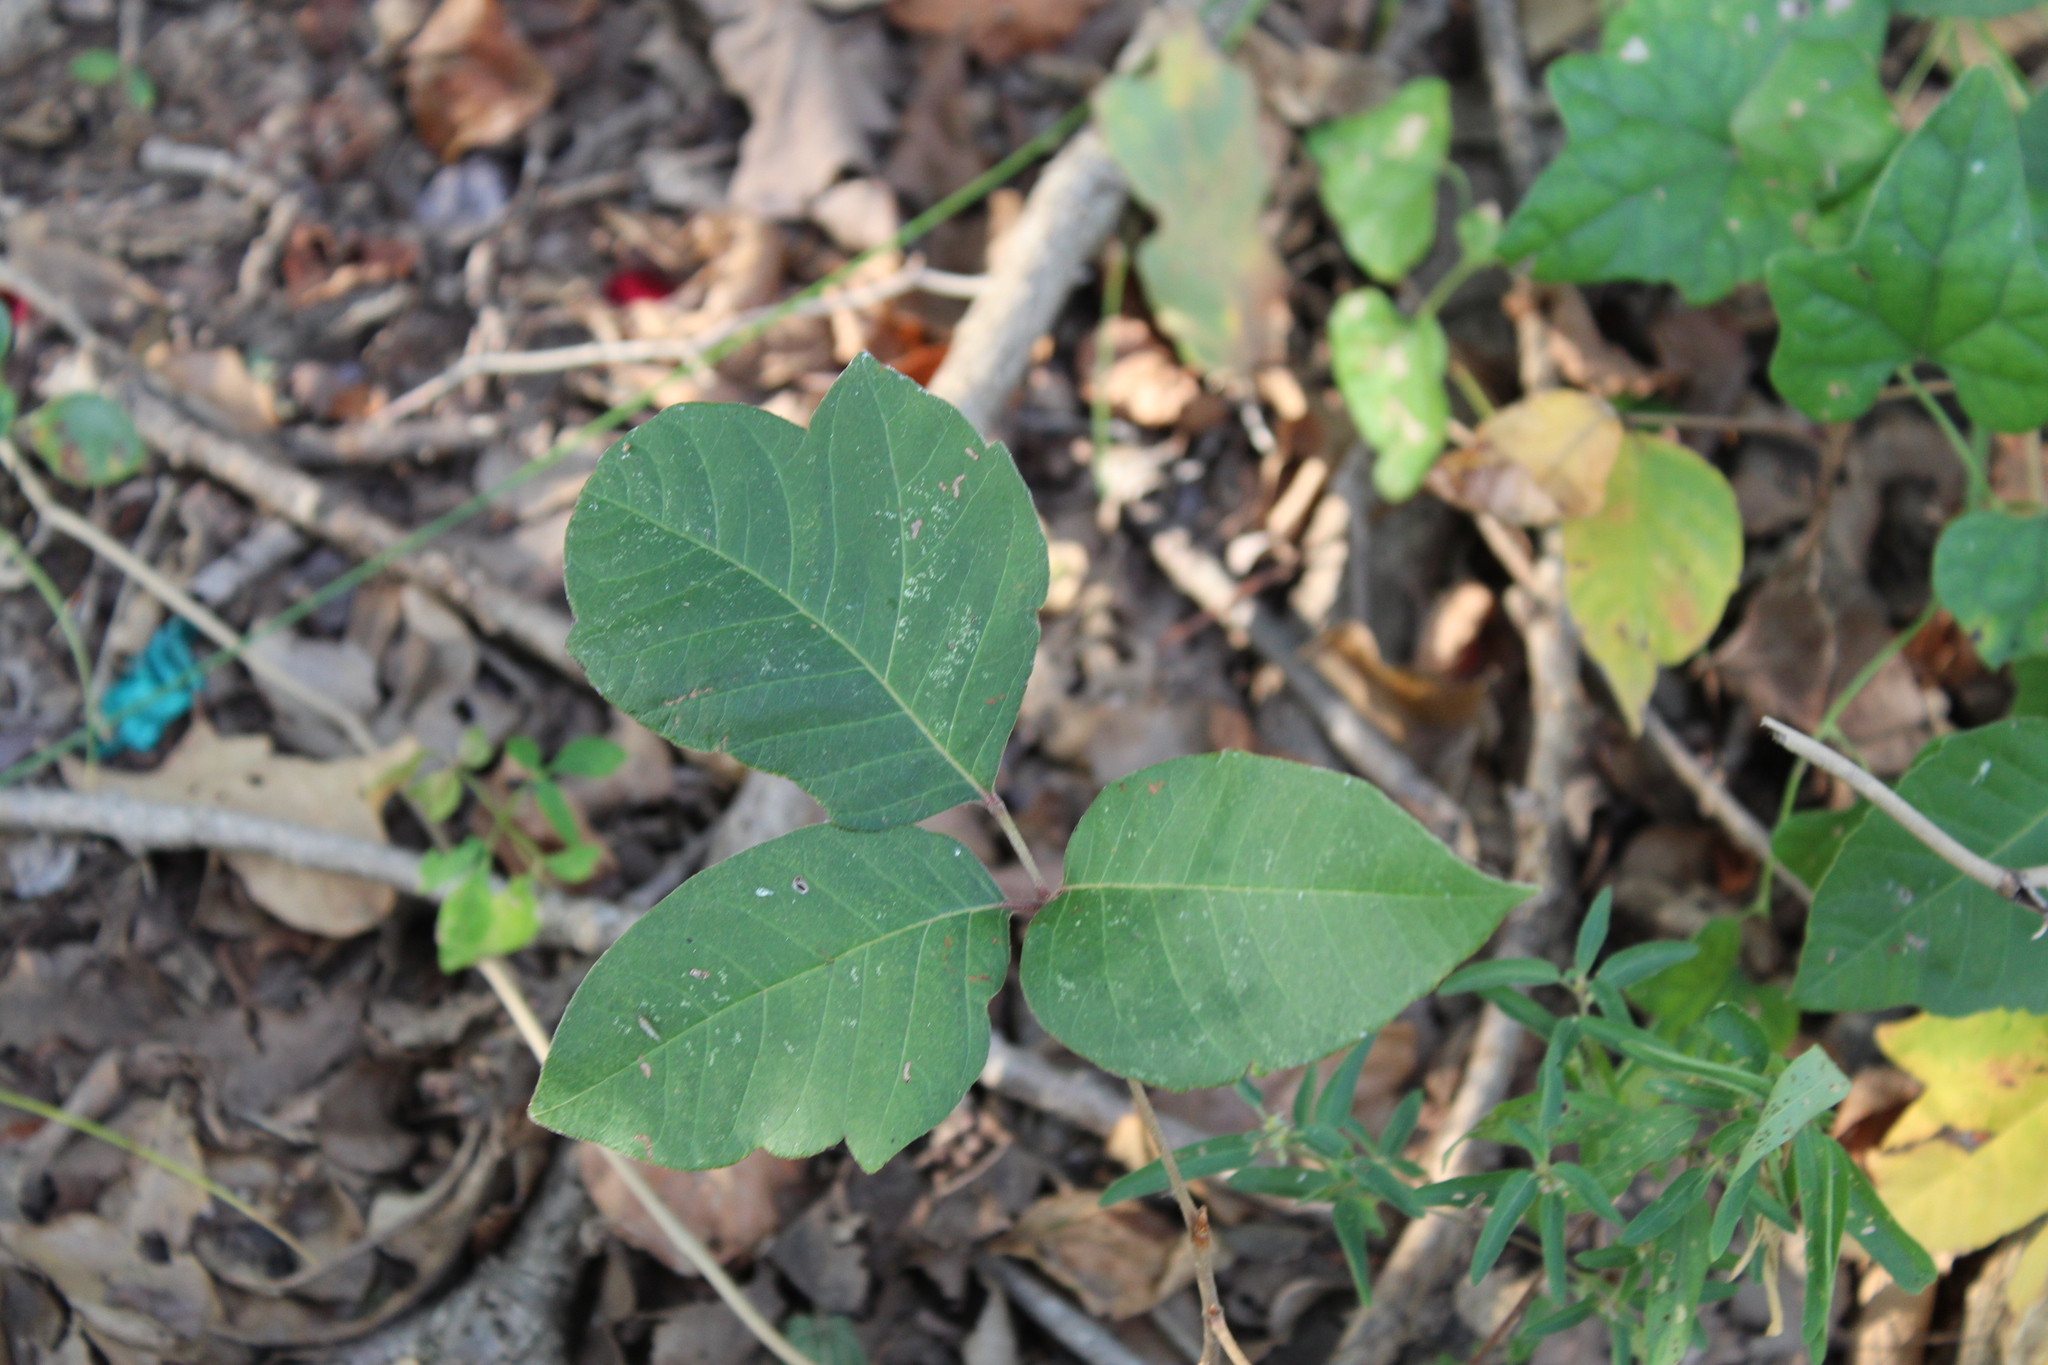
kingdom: Plantae
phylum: Tracheophyta
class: Magnoliopsida
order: Sapindales
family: Anacardiaceae
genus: Toxicodendron
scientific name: Toxicodendron radicans
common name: Poison ivy
